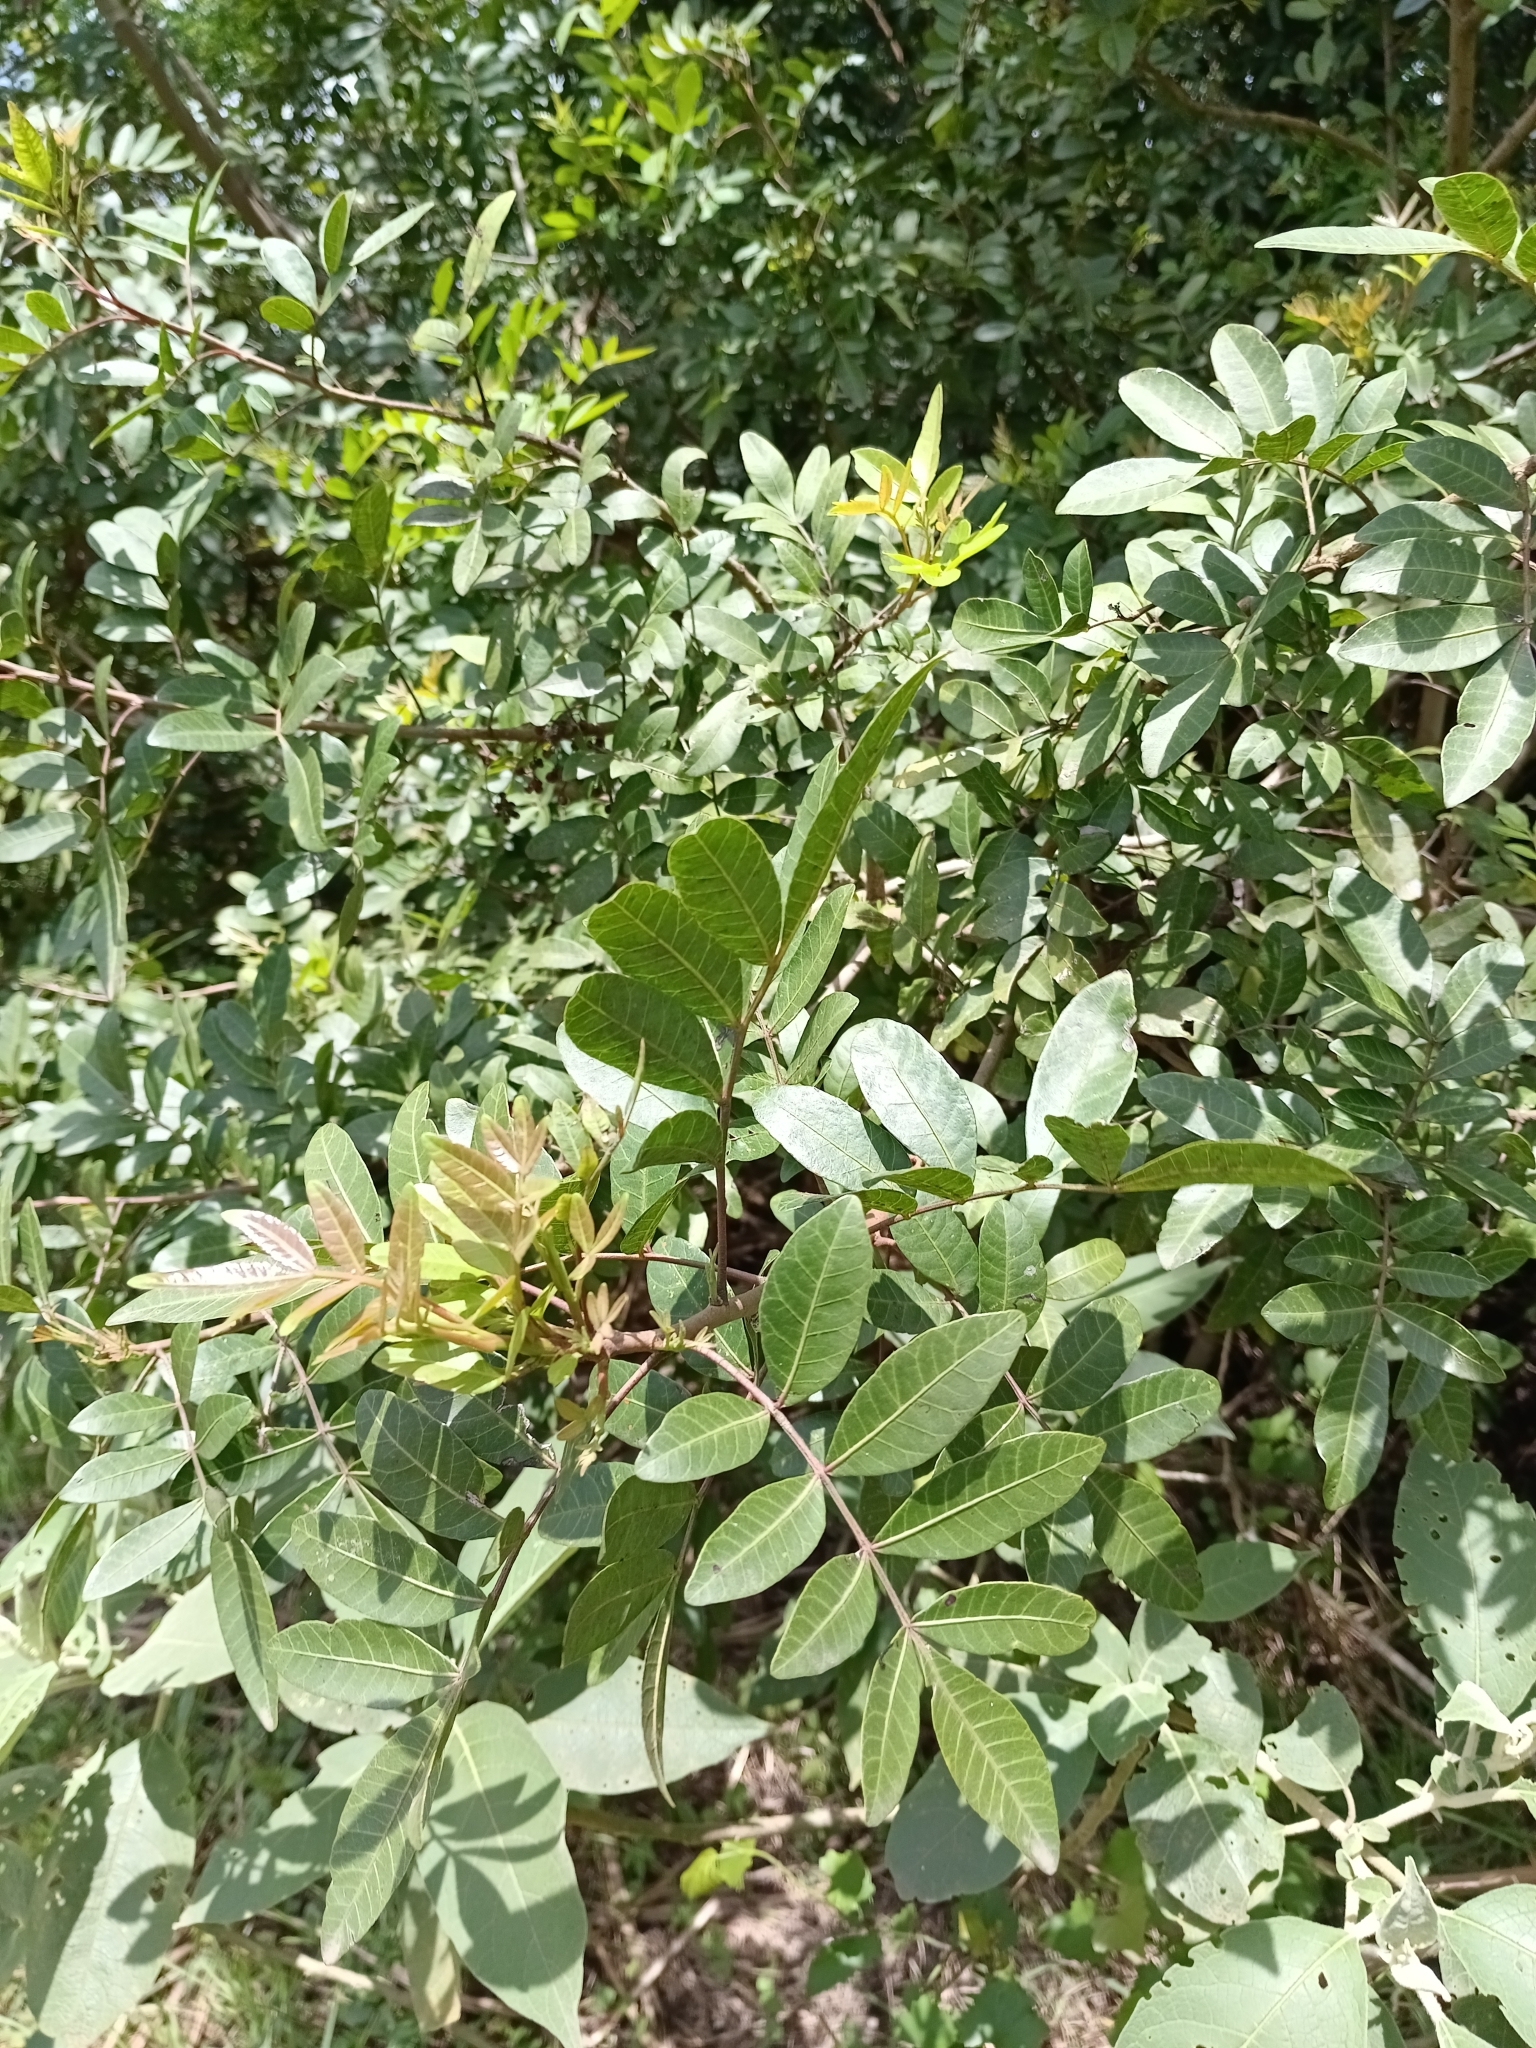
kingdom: Plantae
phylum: Tracheophyta
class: Magnoliopsida
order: Sapindales
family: Anacardiaceae
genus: Schinus
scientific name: Schinus terebinthifolia
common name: Brazilian peppertree
